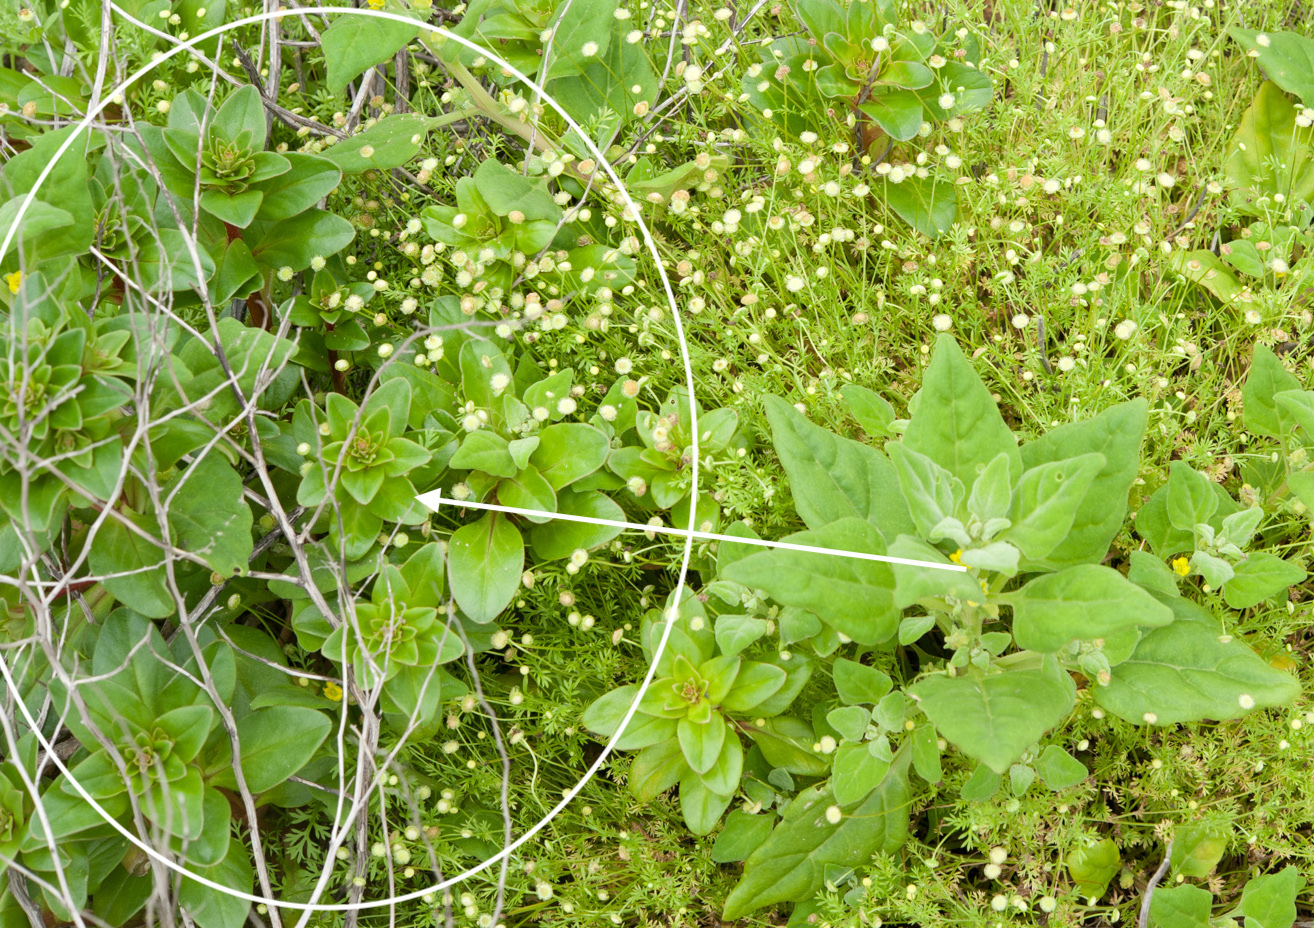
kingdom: Plantae
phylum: Tracheophyta
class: Magnoliopsida
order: Ericales
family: Primulaceae
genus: Lysimachia
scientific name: Lysimachia mauritiana
